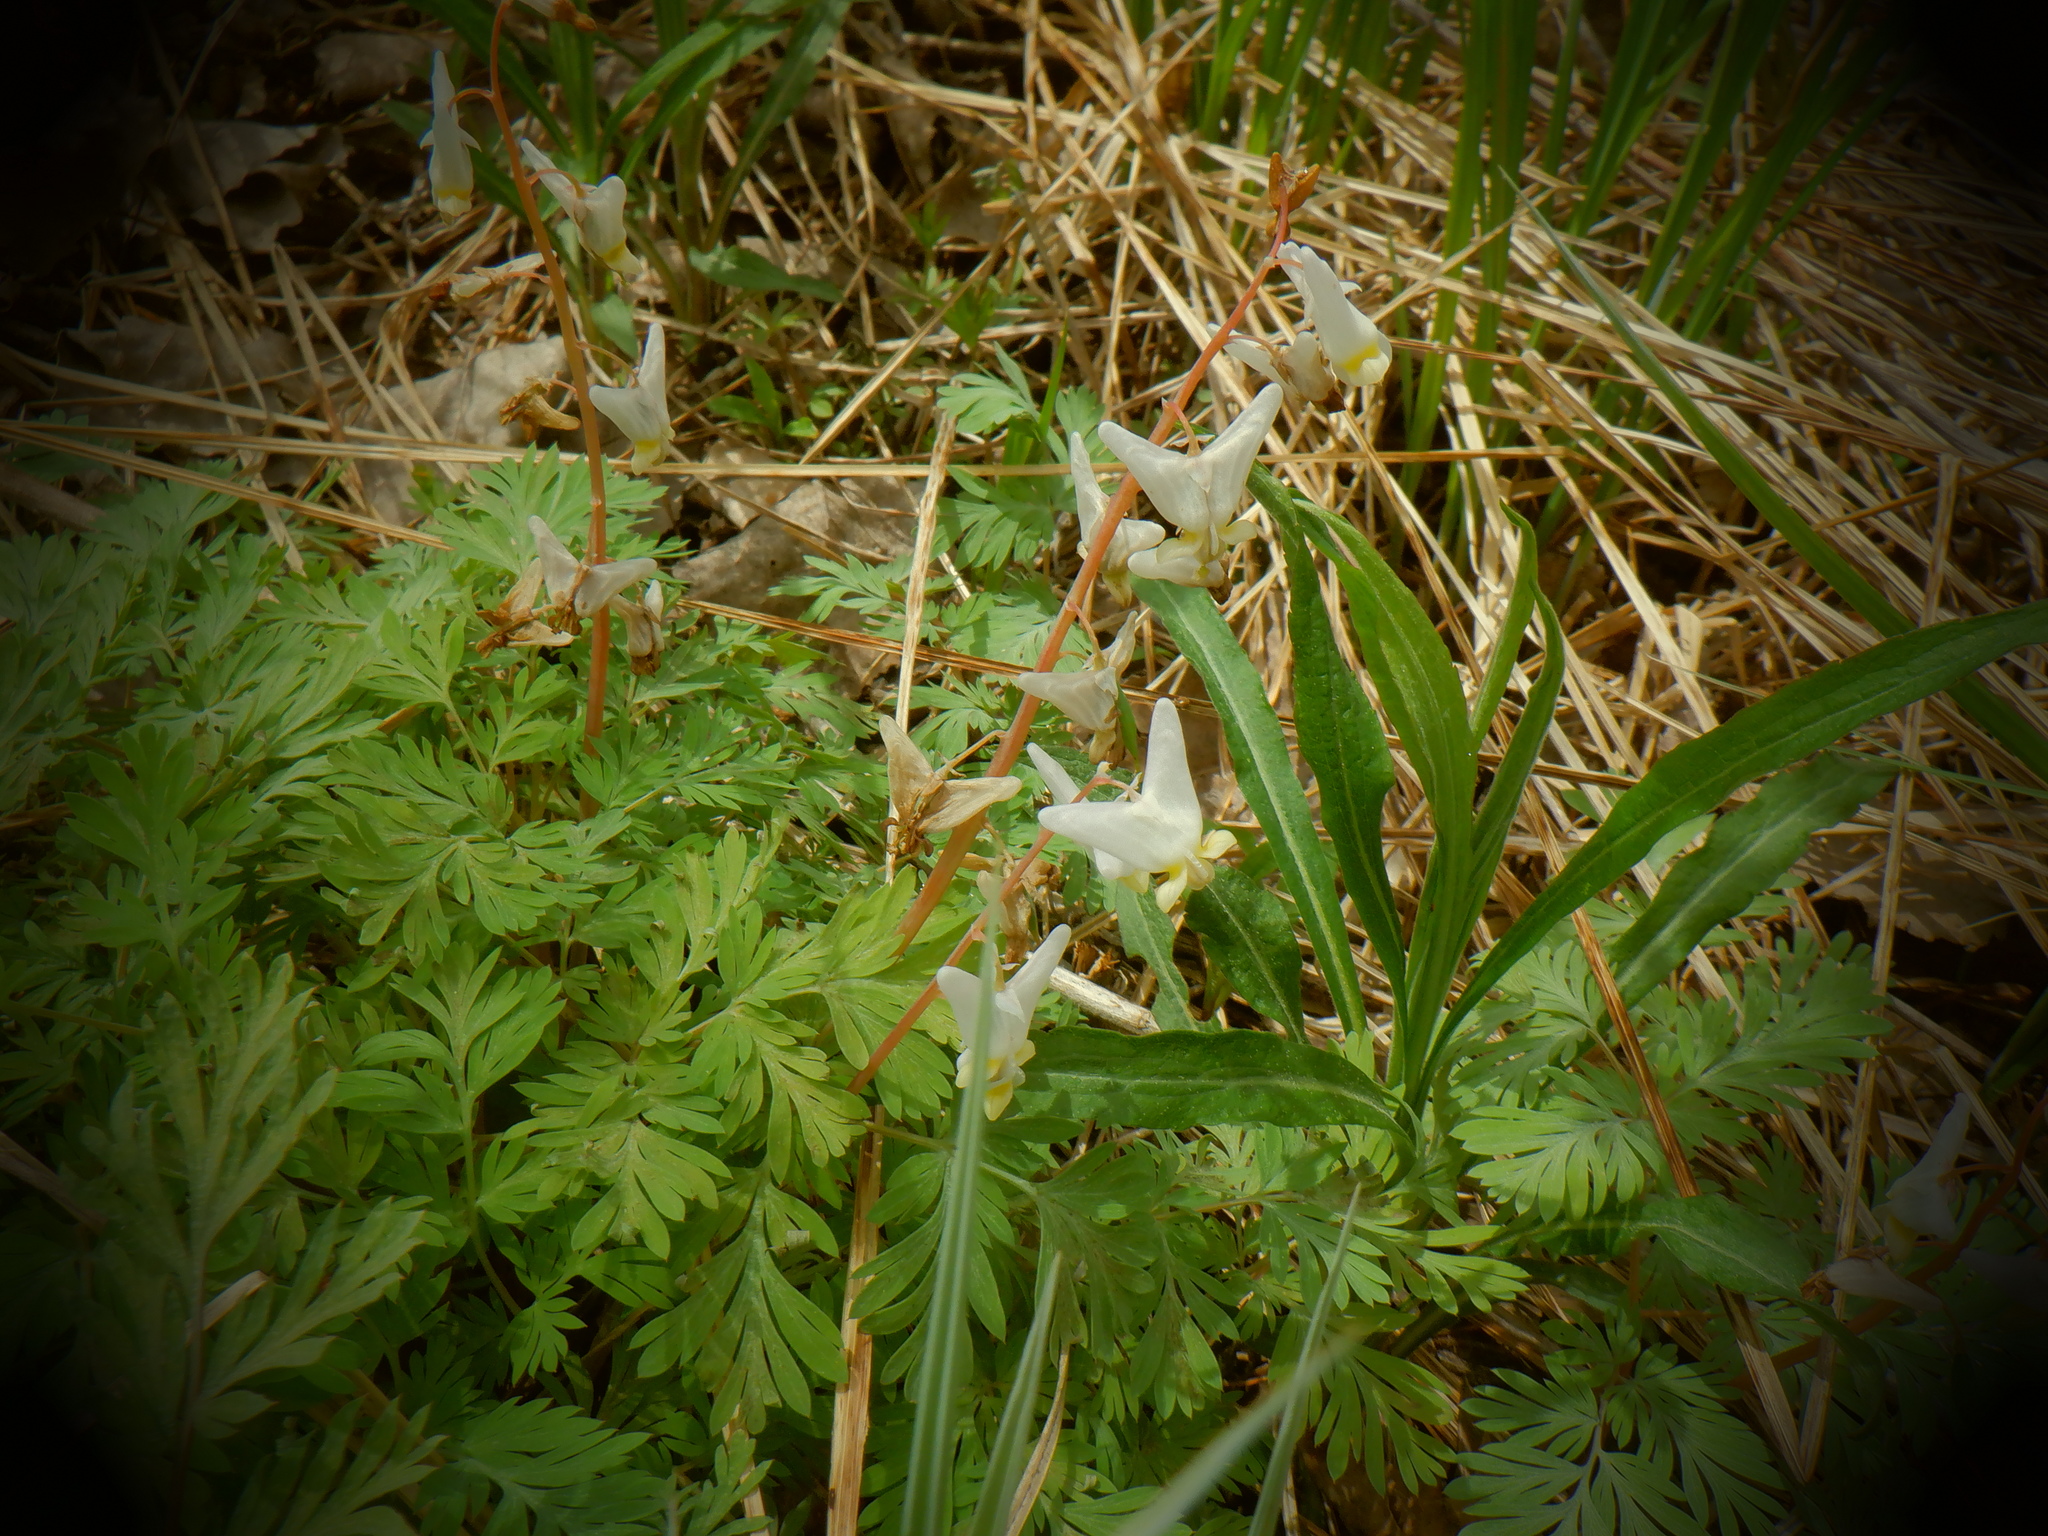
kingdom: Plantae
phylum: Tracheophyta
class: Magnoliopsida
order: Ranunculales
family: Papaveraceae
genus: Dicentra
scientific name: Dicentra cucullaria
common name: Dutchman's breeches
